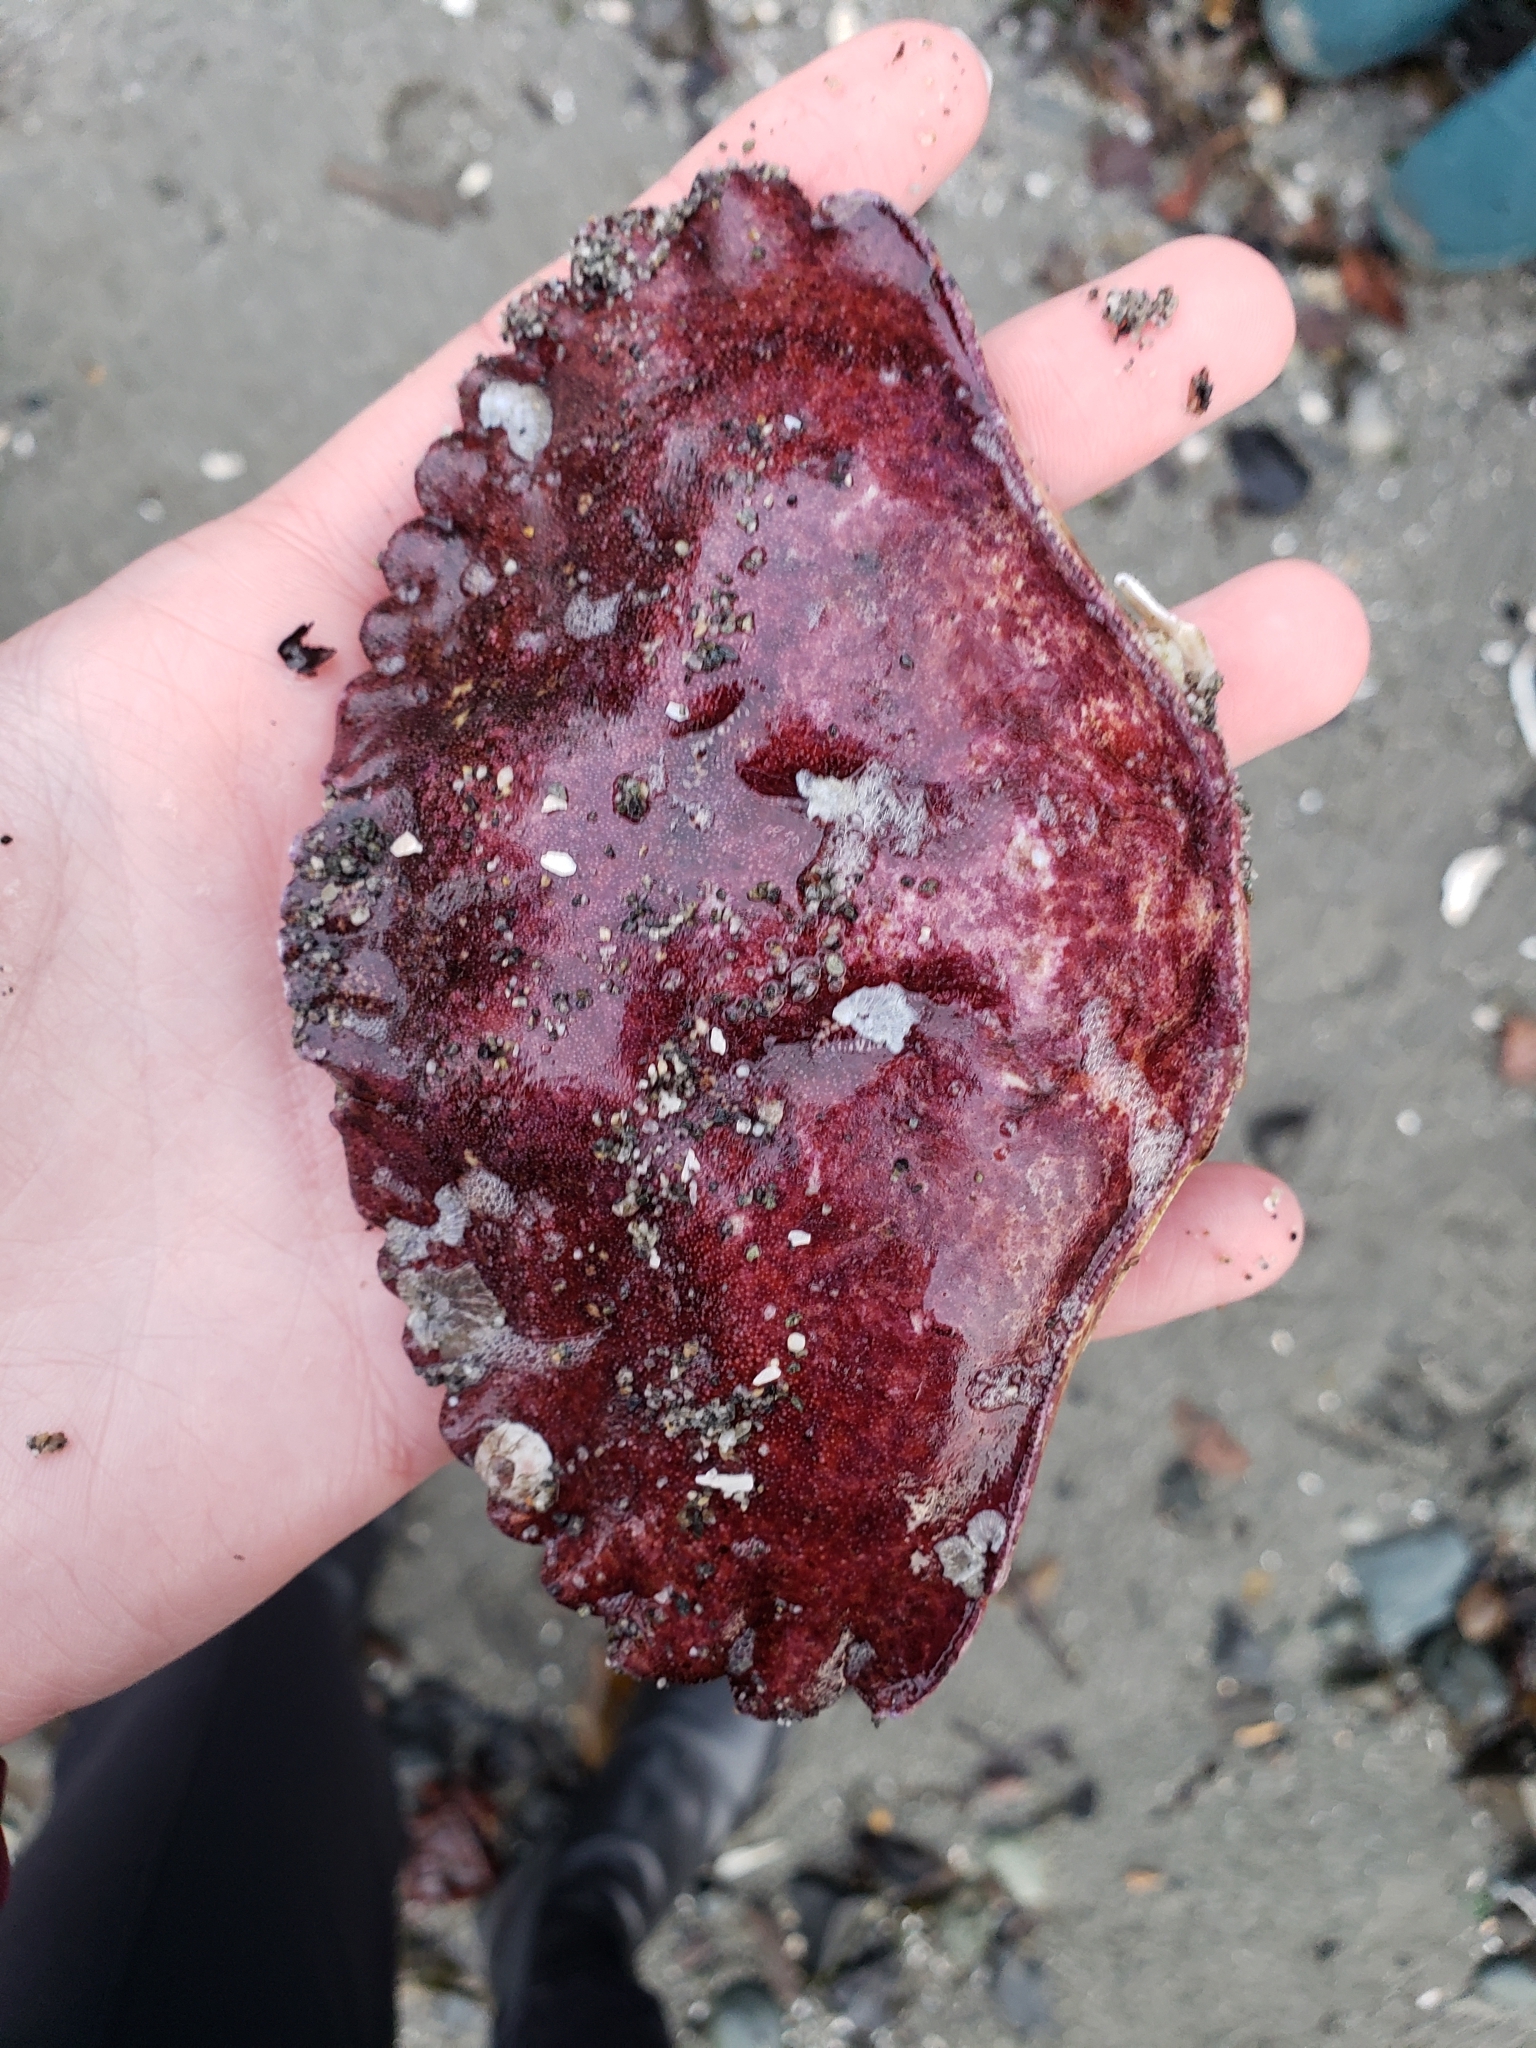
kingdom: Animalia
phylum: Arthropoda
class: Malacostraca
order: Decapoda
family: Cancridae
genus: Cancer
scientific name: Cancer productus
